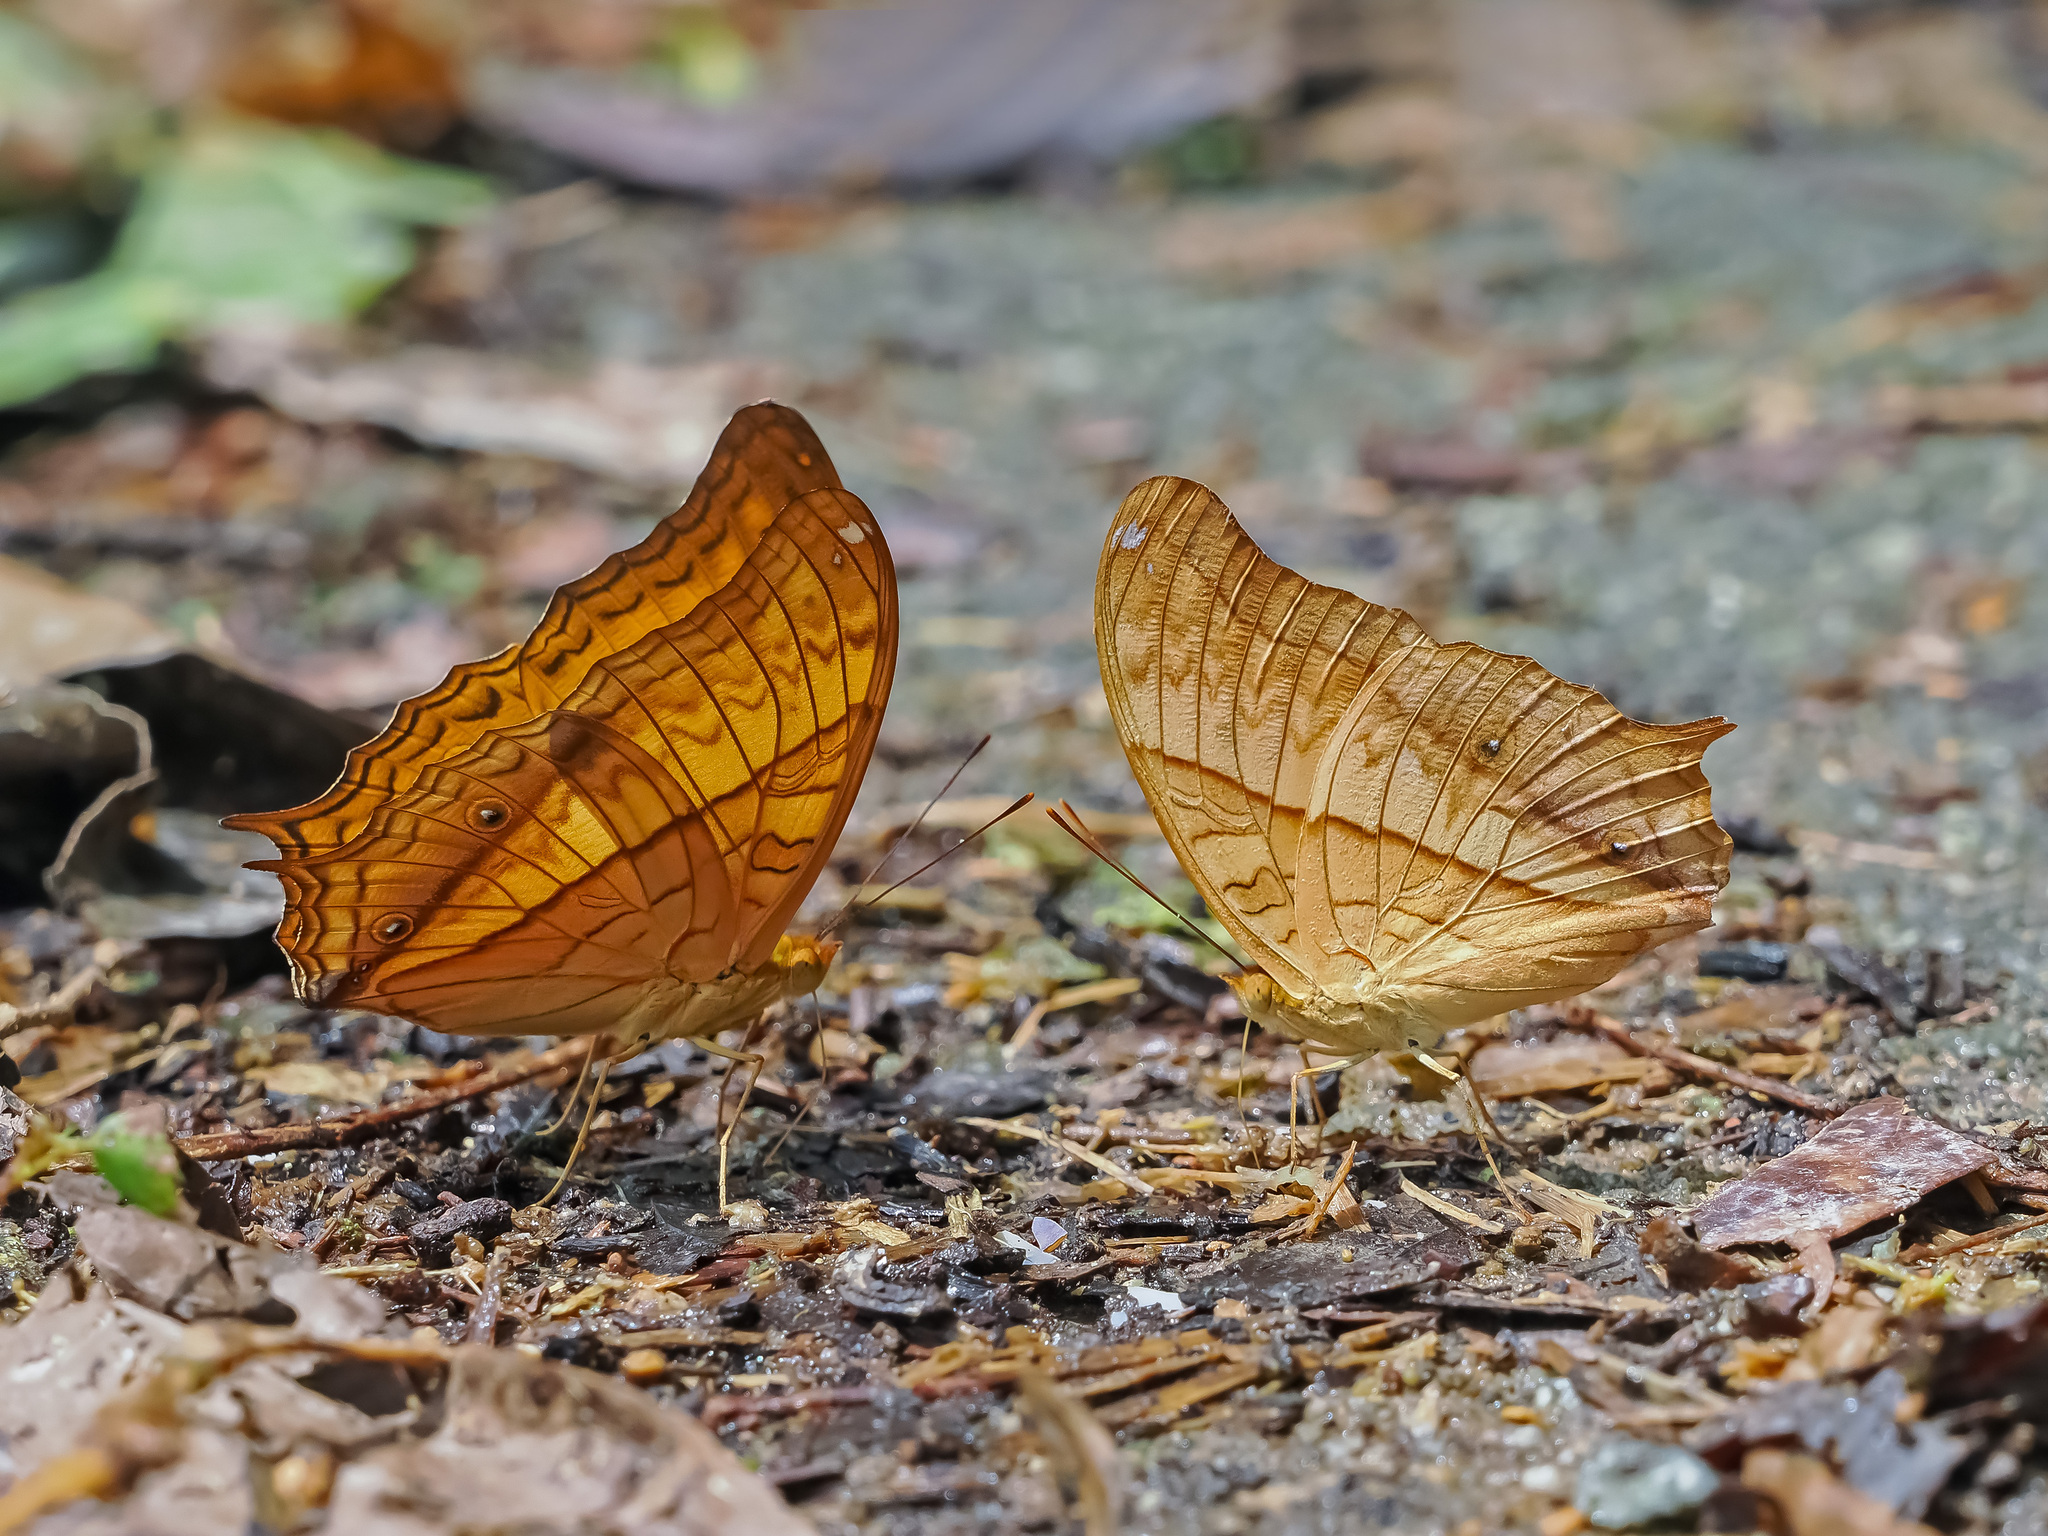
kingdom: Animalia
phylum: Arthropoda
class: Insecta
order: Lepidoptera
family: Nymphalidae
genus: Vindula
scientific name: Vindula deione
